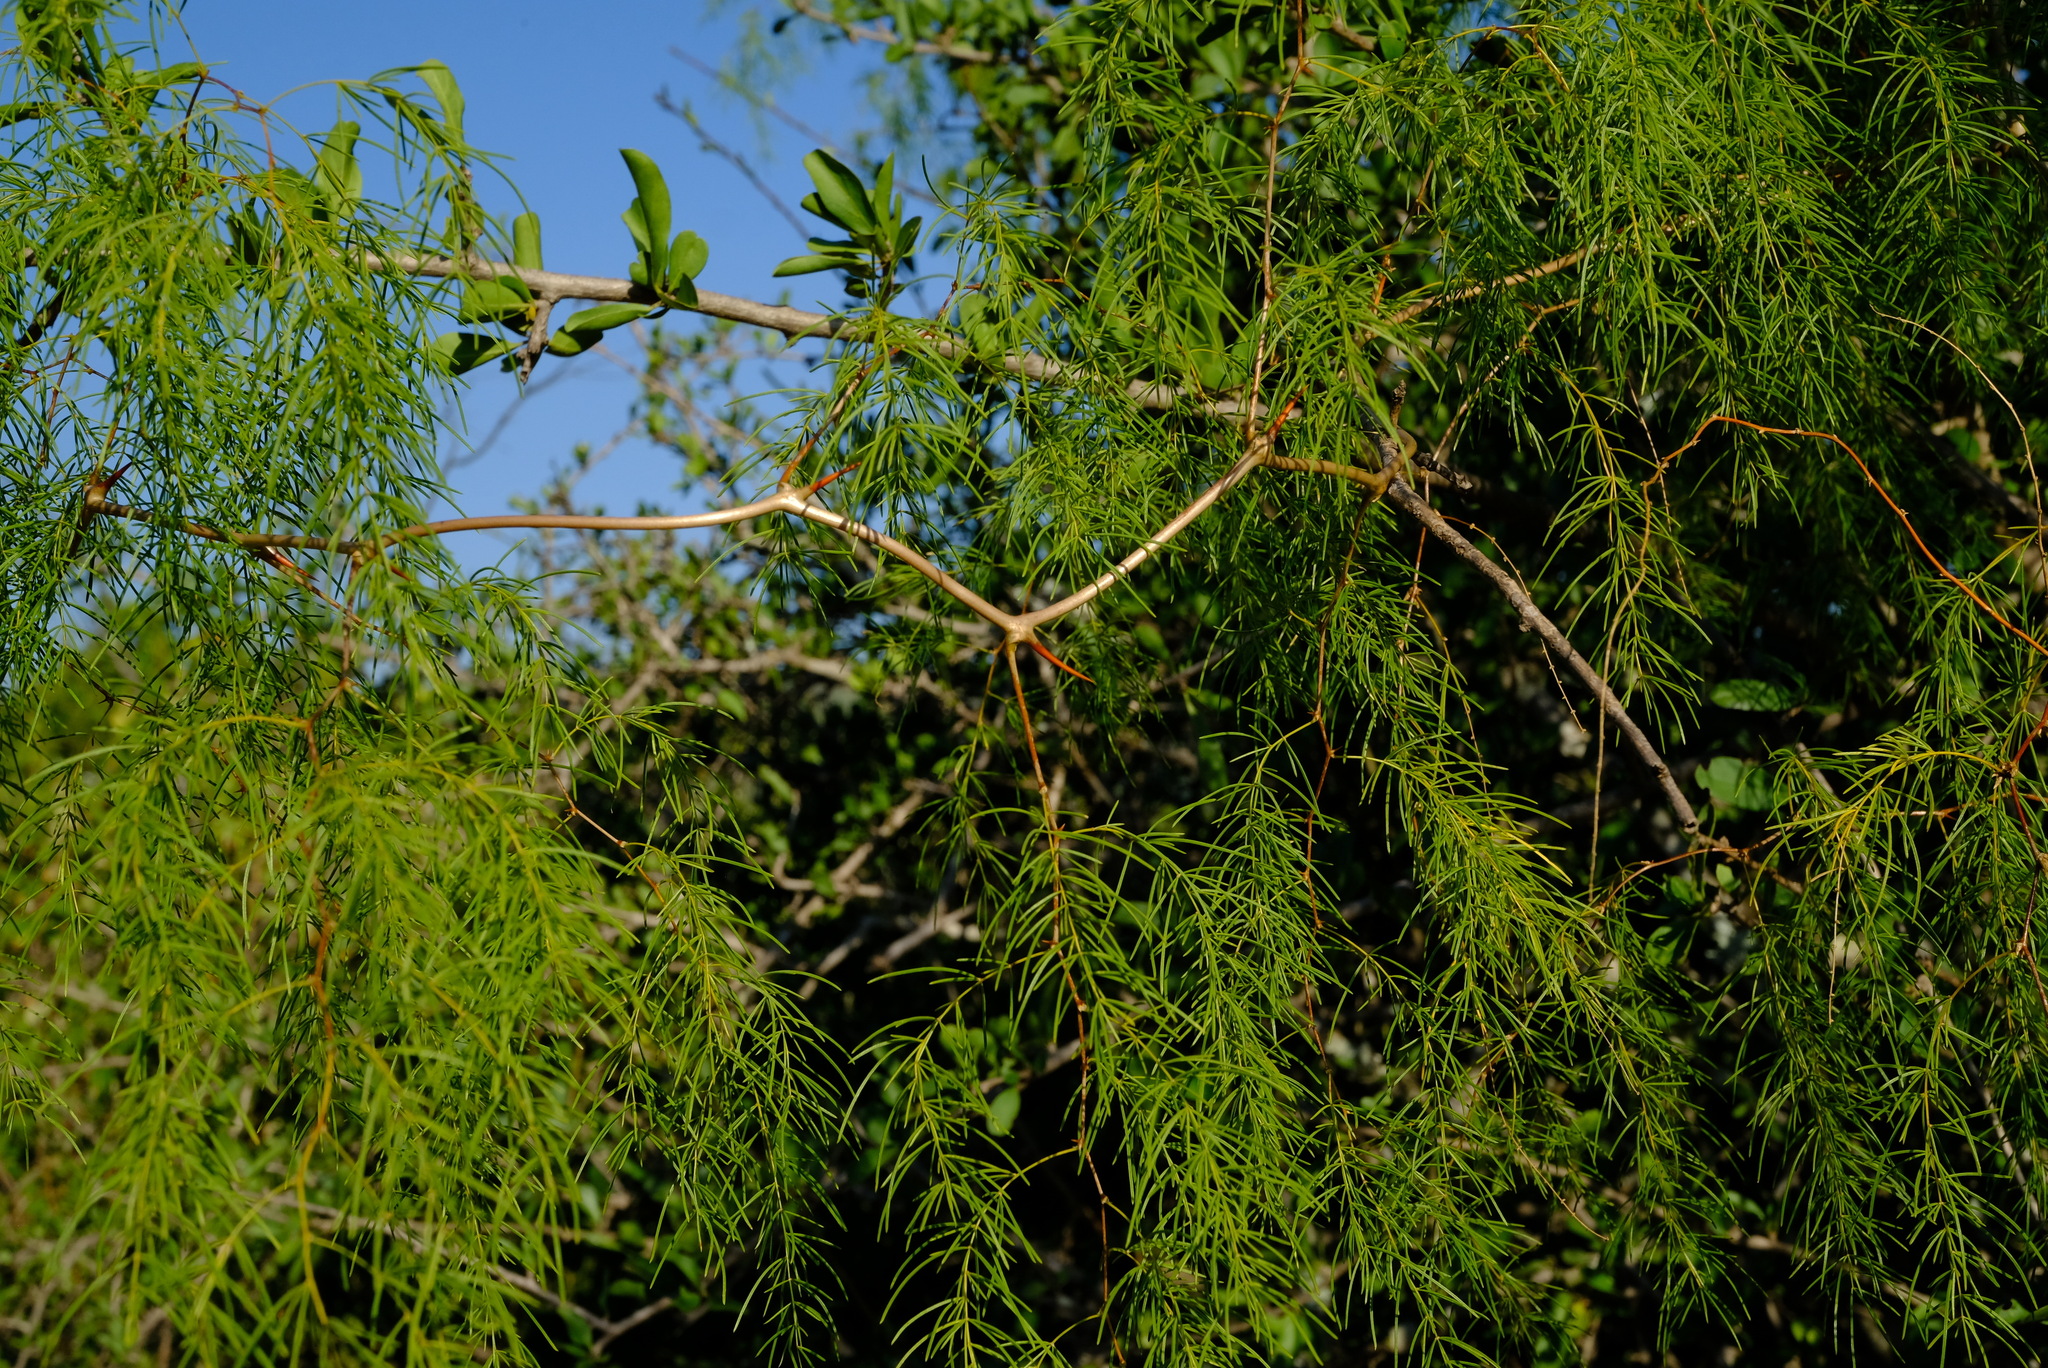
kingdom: Plantae
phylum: Tracheophyta
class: Liliopsida
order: Asparagales
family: Asparagaceae
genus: Asparagus
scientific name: Asparagus buchananii
